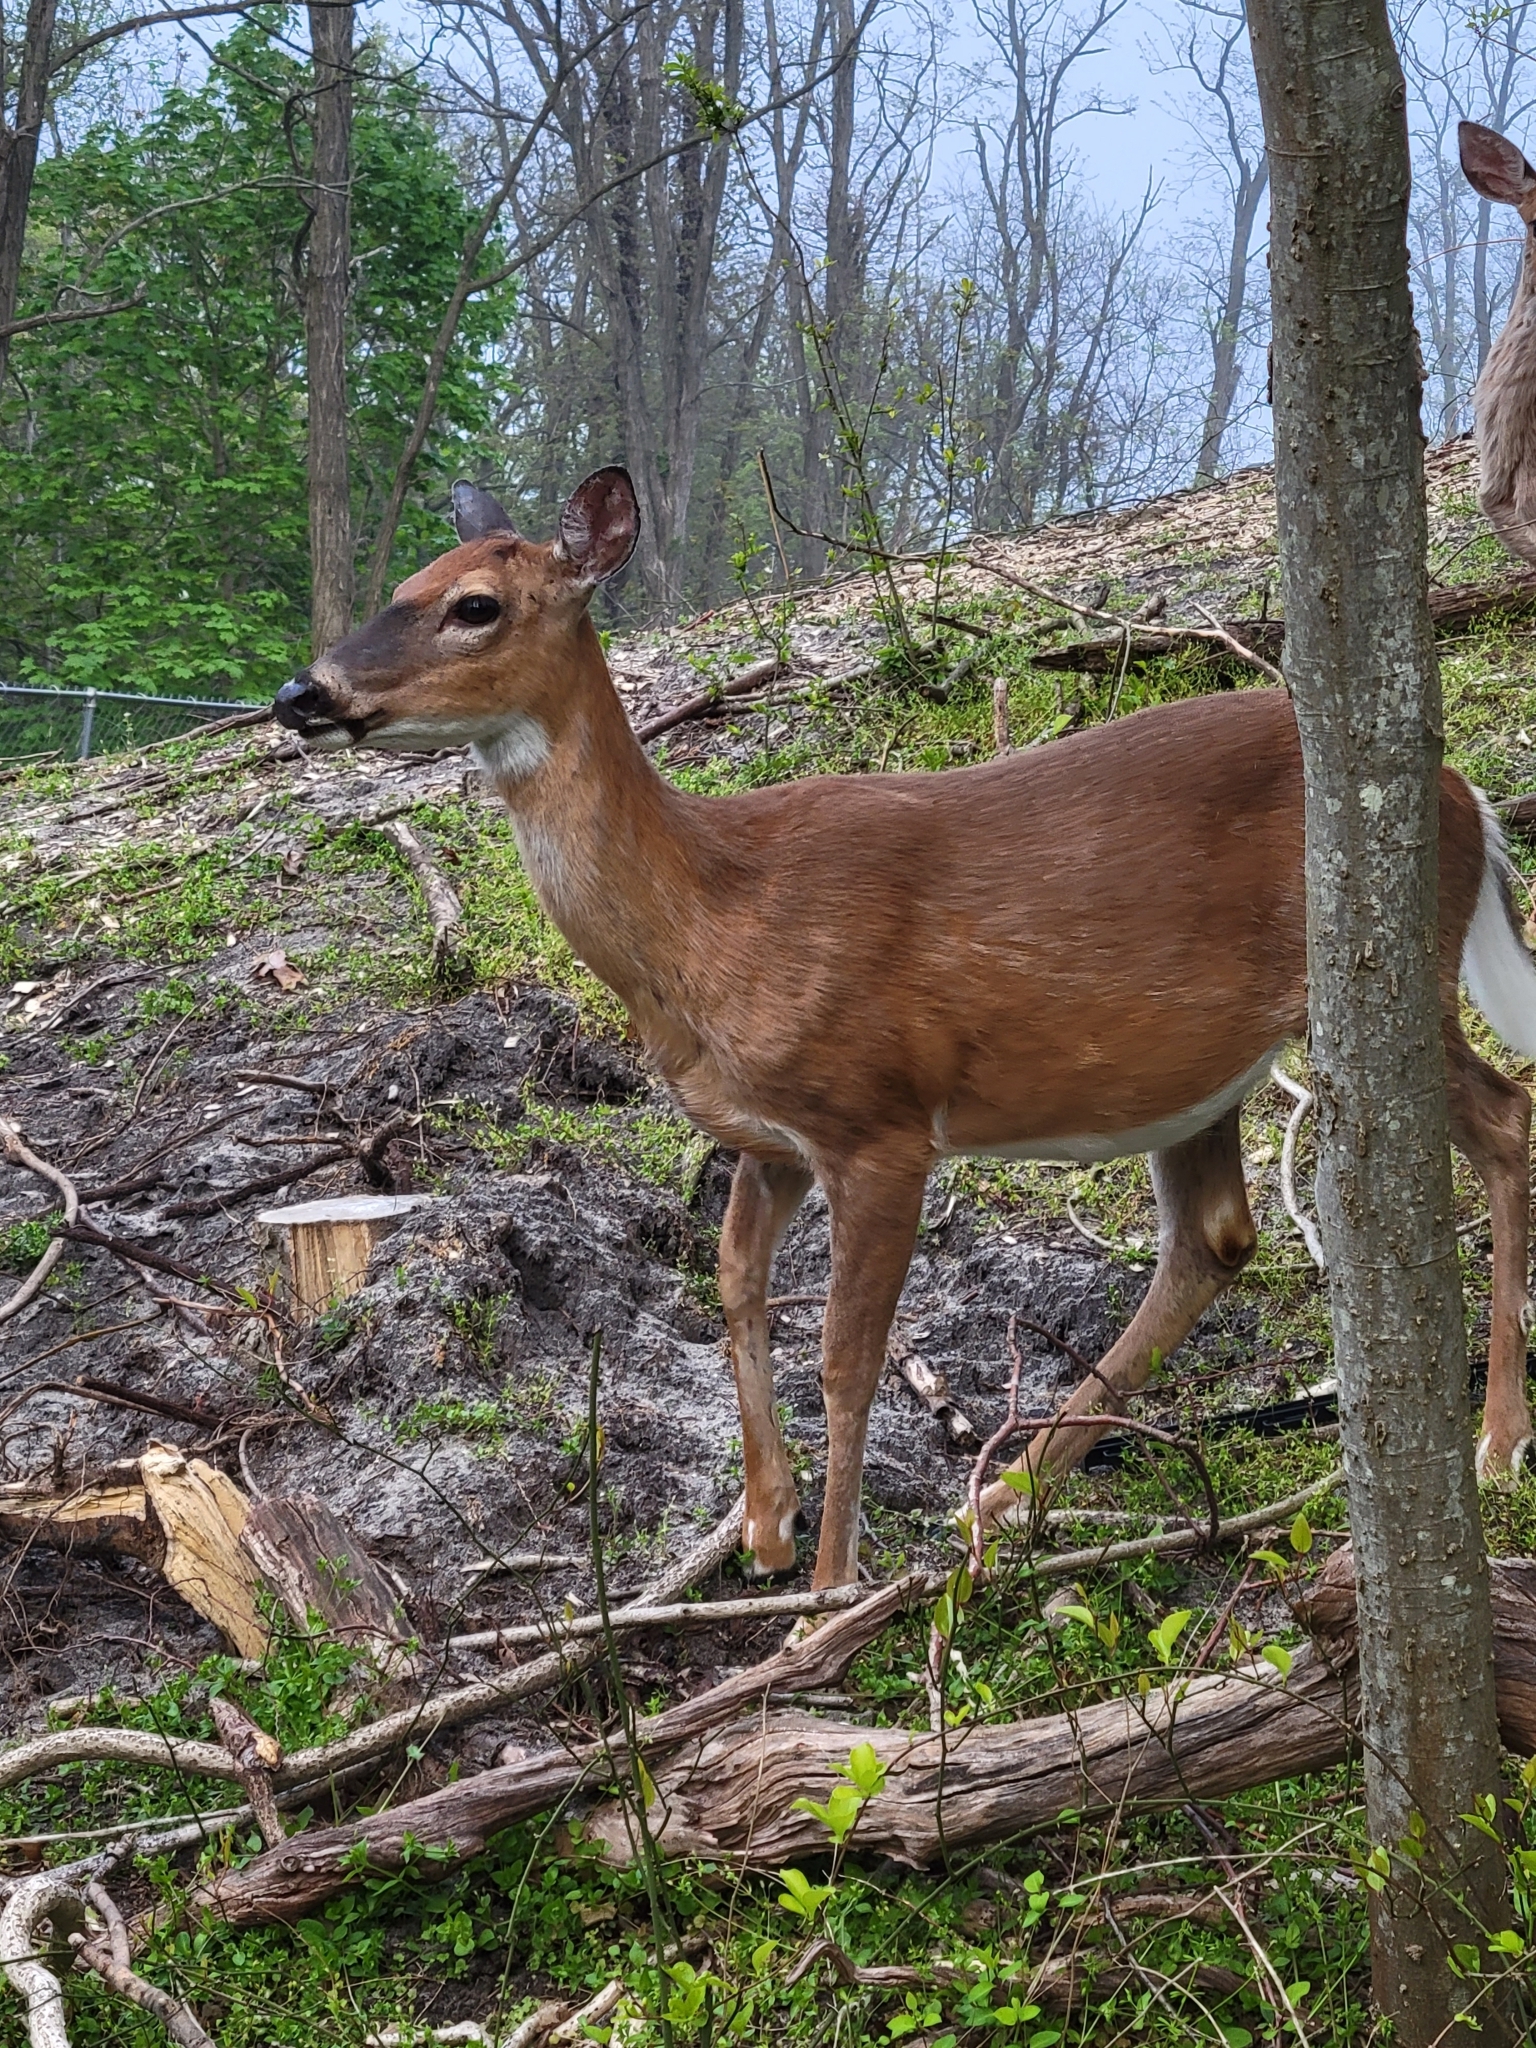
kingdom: Animalia
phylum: Chordata
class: Mammalia
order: Artiodactyla
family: Cervidae
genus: Odocoileus
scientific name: Odocoileus virginianus
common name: White-tailed deer
